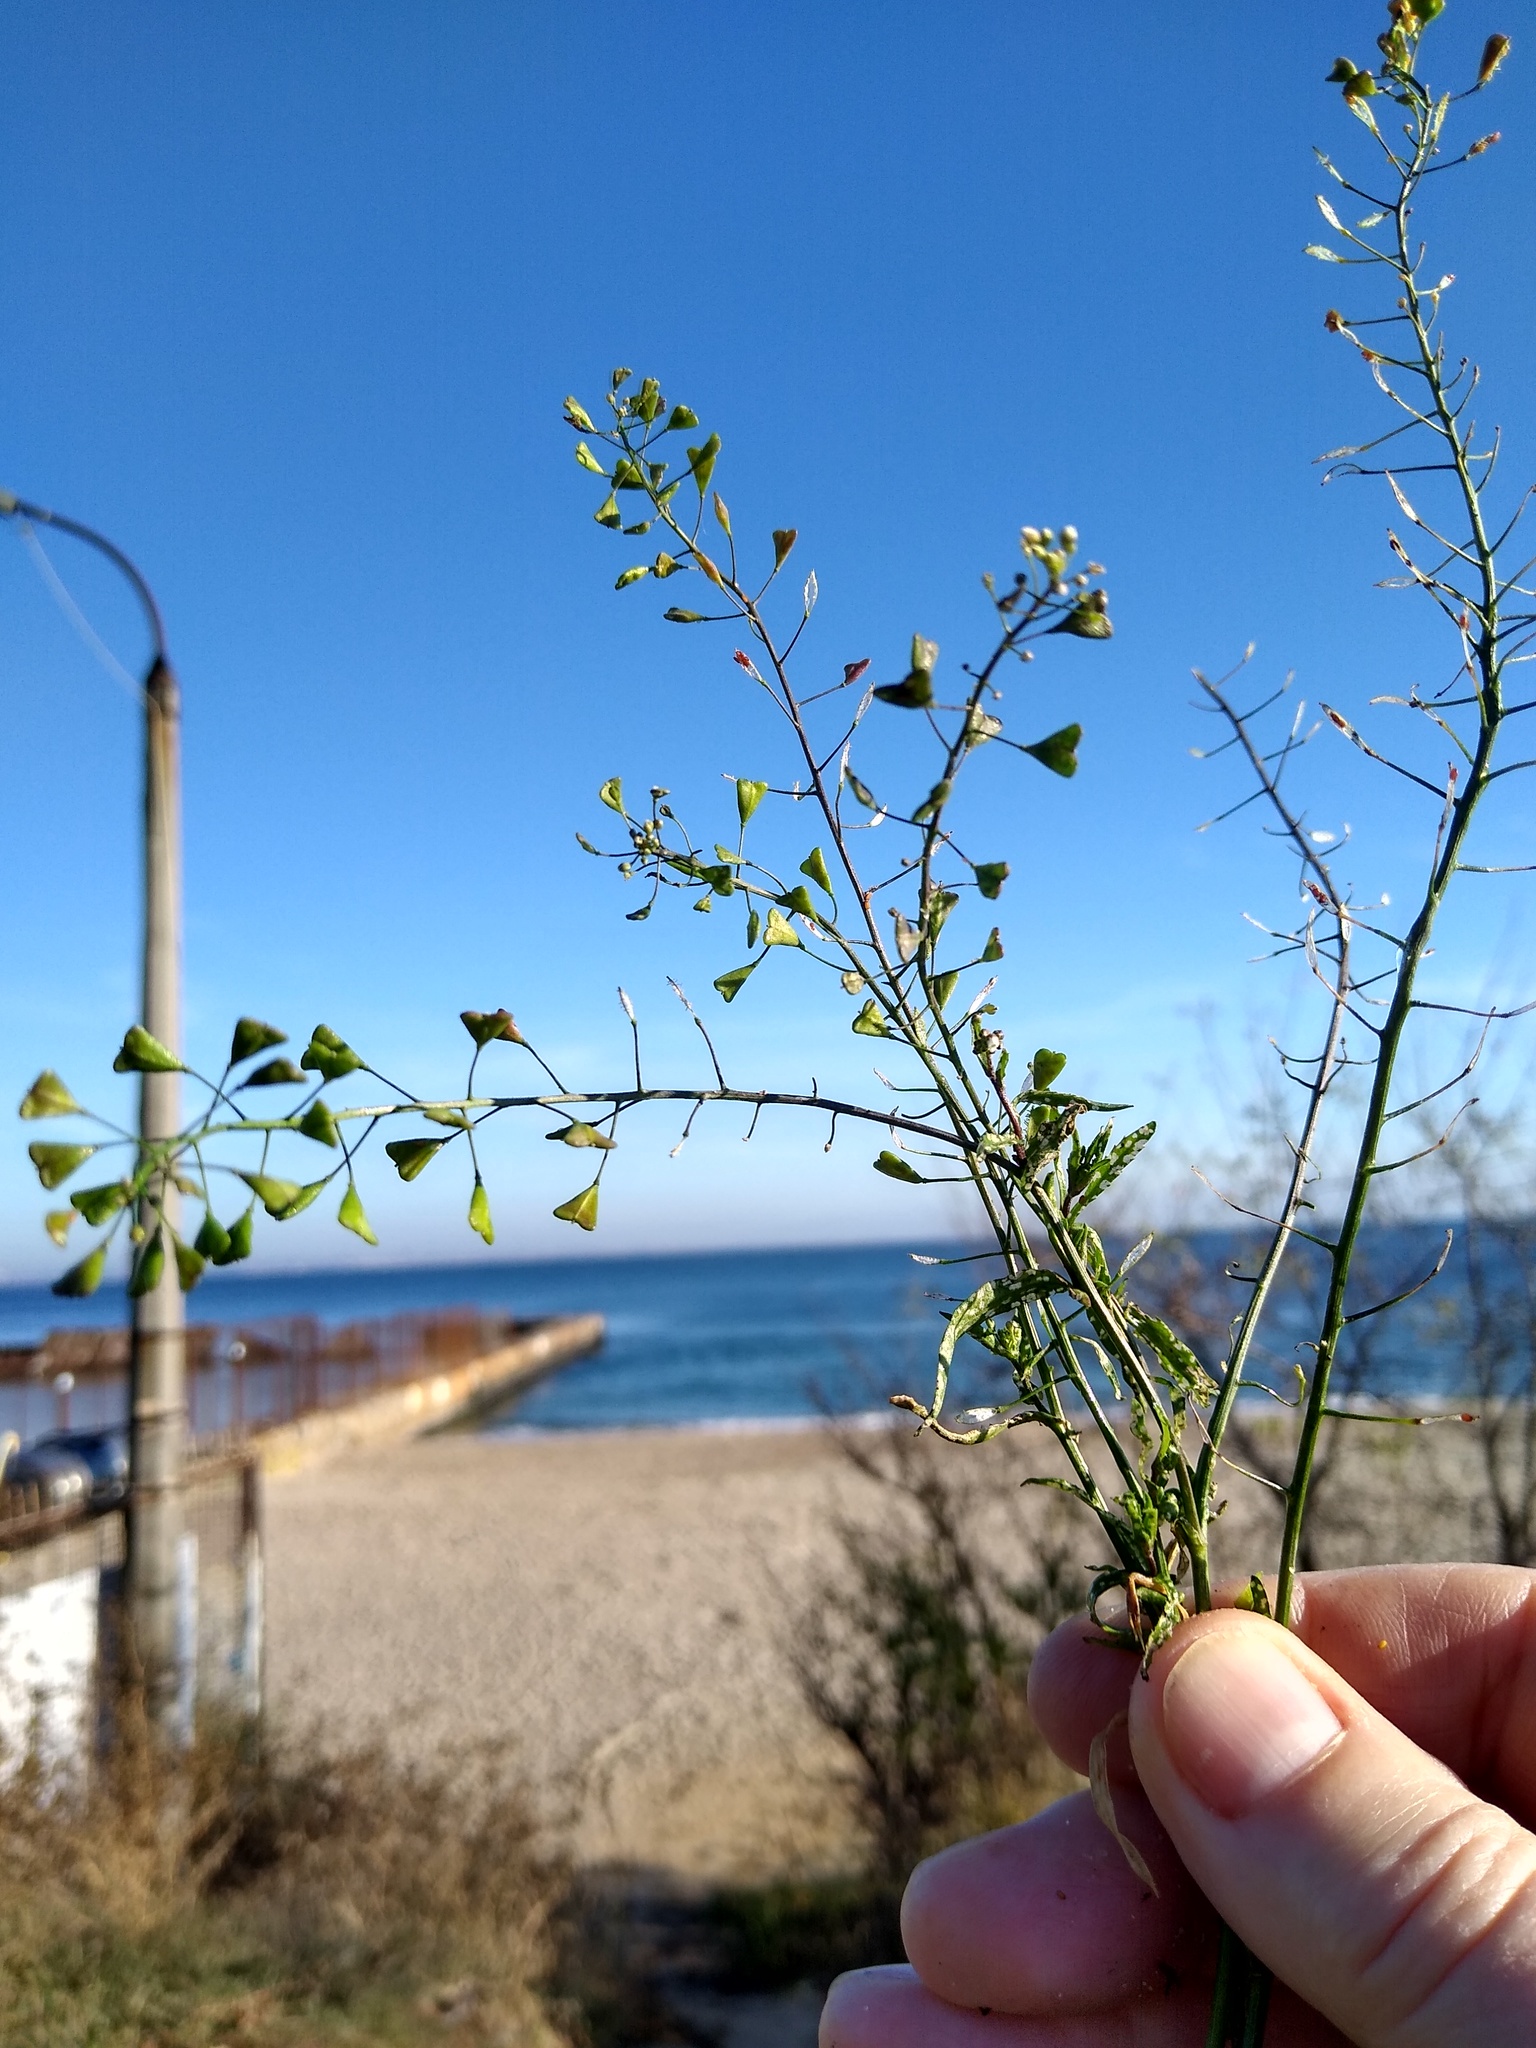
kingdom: Plantae
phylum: Tracheophyta
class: Magnoliopsida
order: Brassicales
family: Brassicaceae
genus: Capsella
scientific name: Capsella bursa-pastoris
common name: Shepherd's purse
